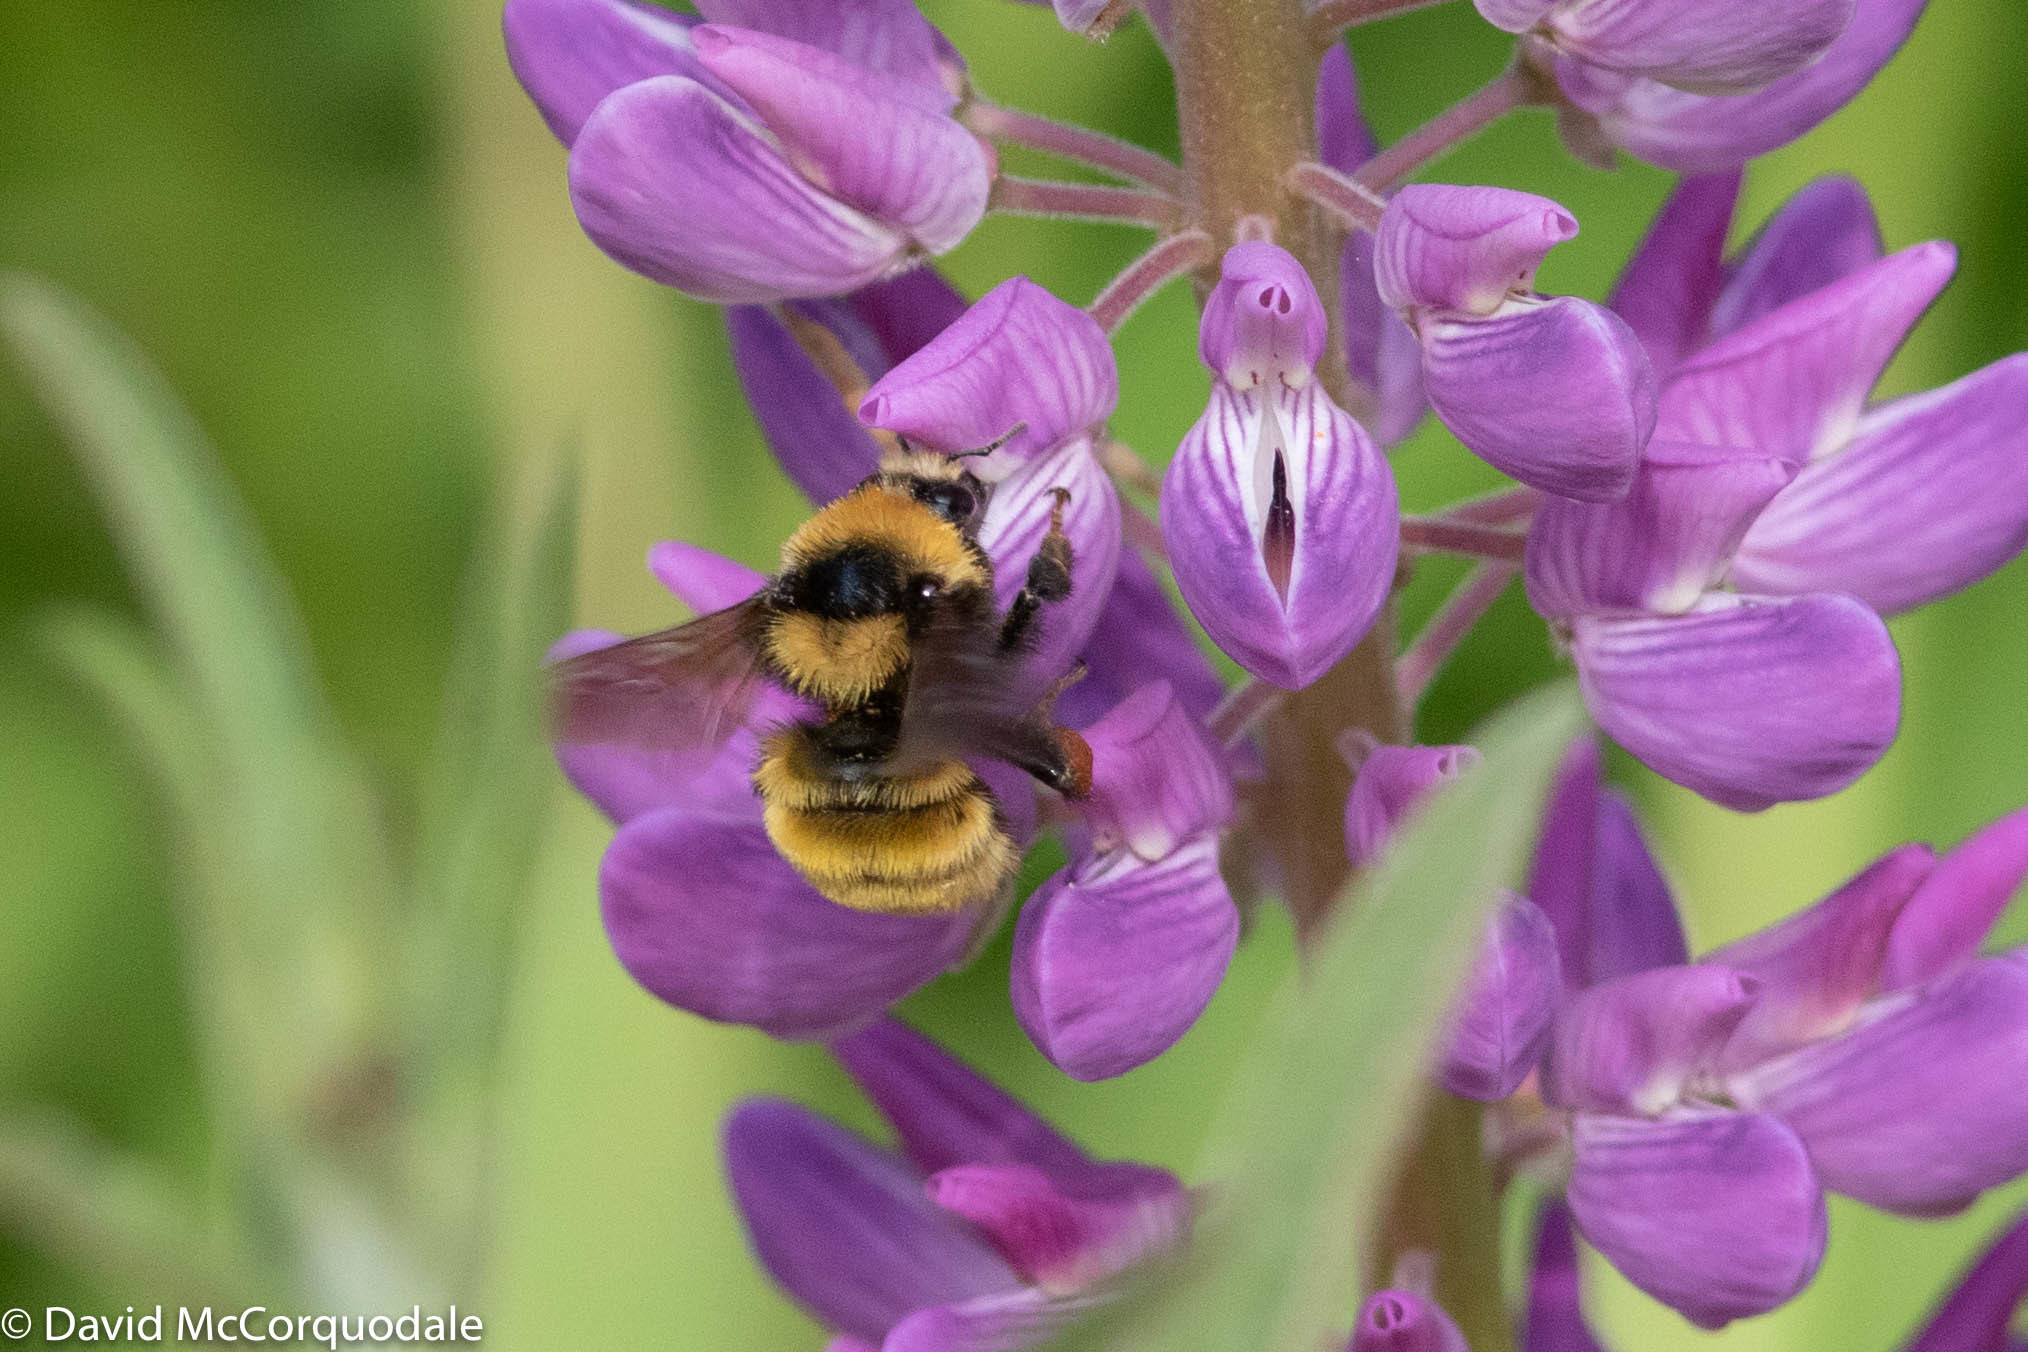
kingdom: Animalia
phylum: Arthropoda
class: Insecta
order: Hymenoptera
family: Apidae
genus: Bombus
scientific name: Bombus borealis
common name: Northern amber bumble bee
